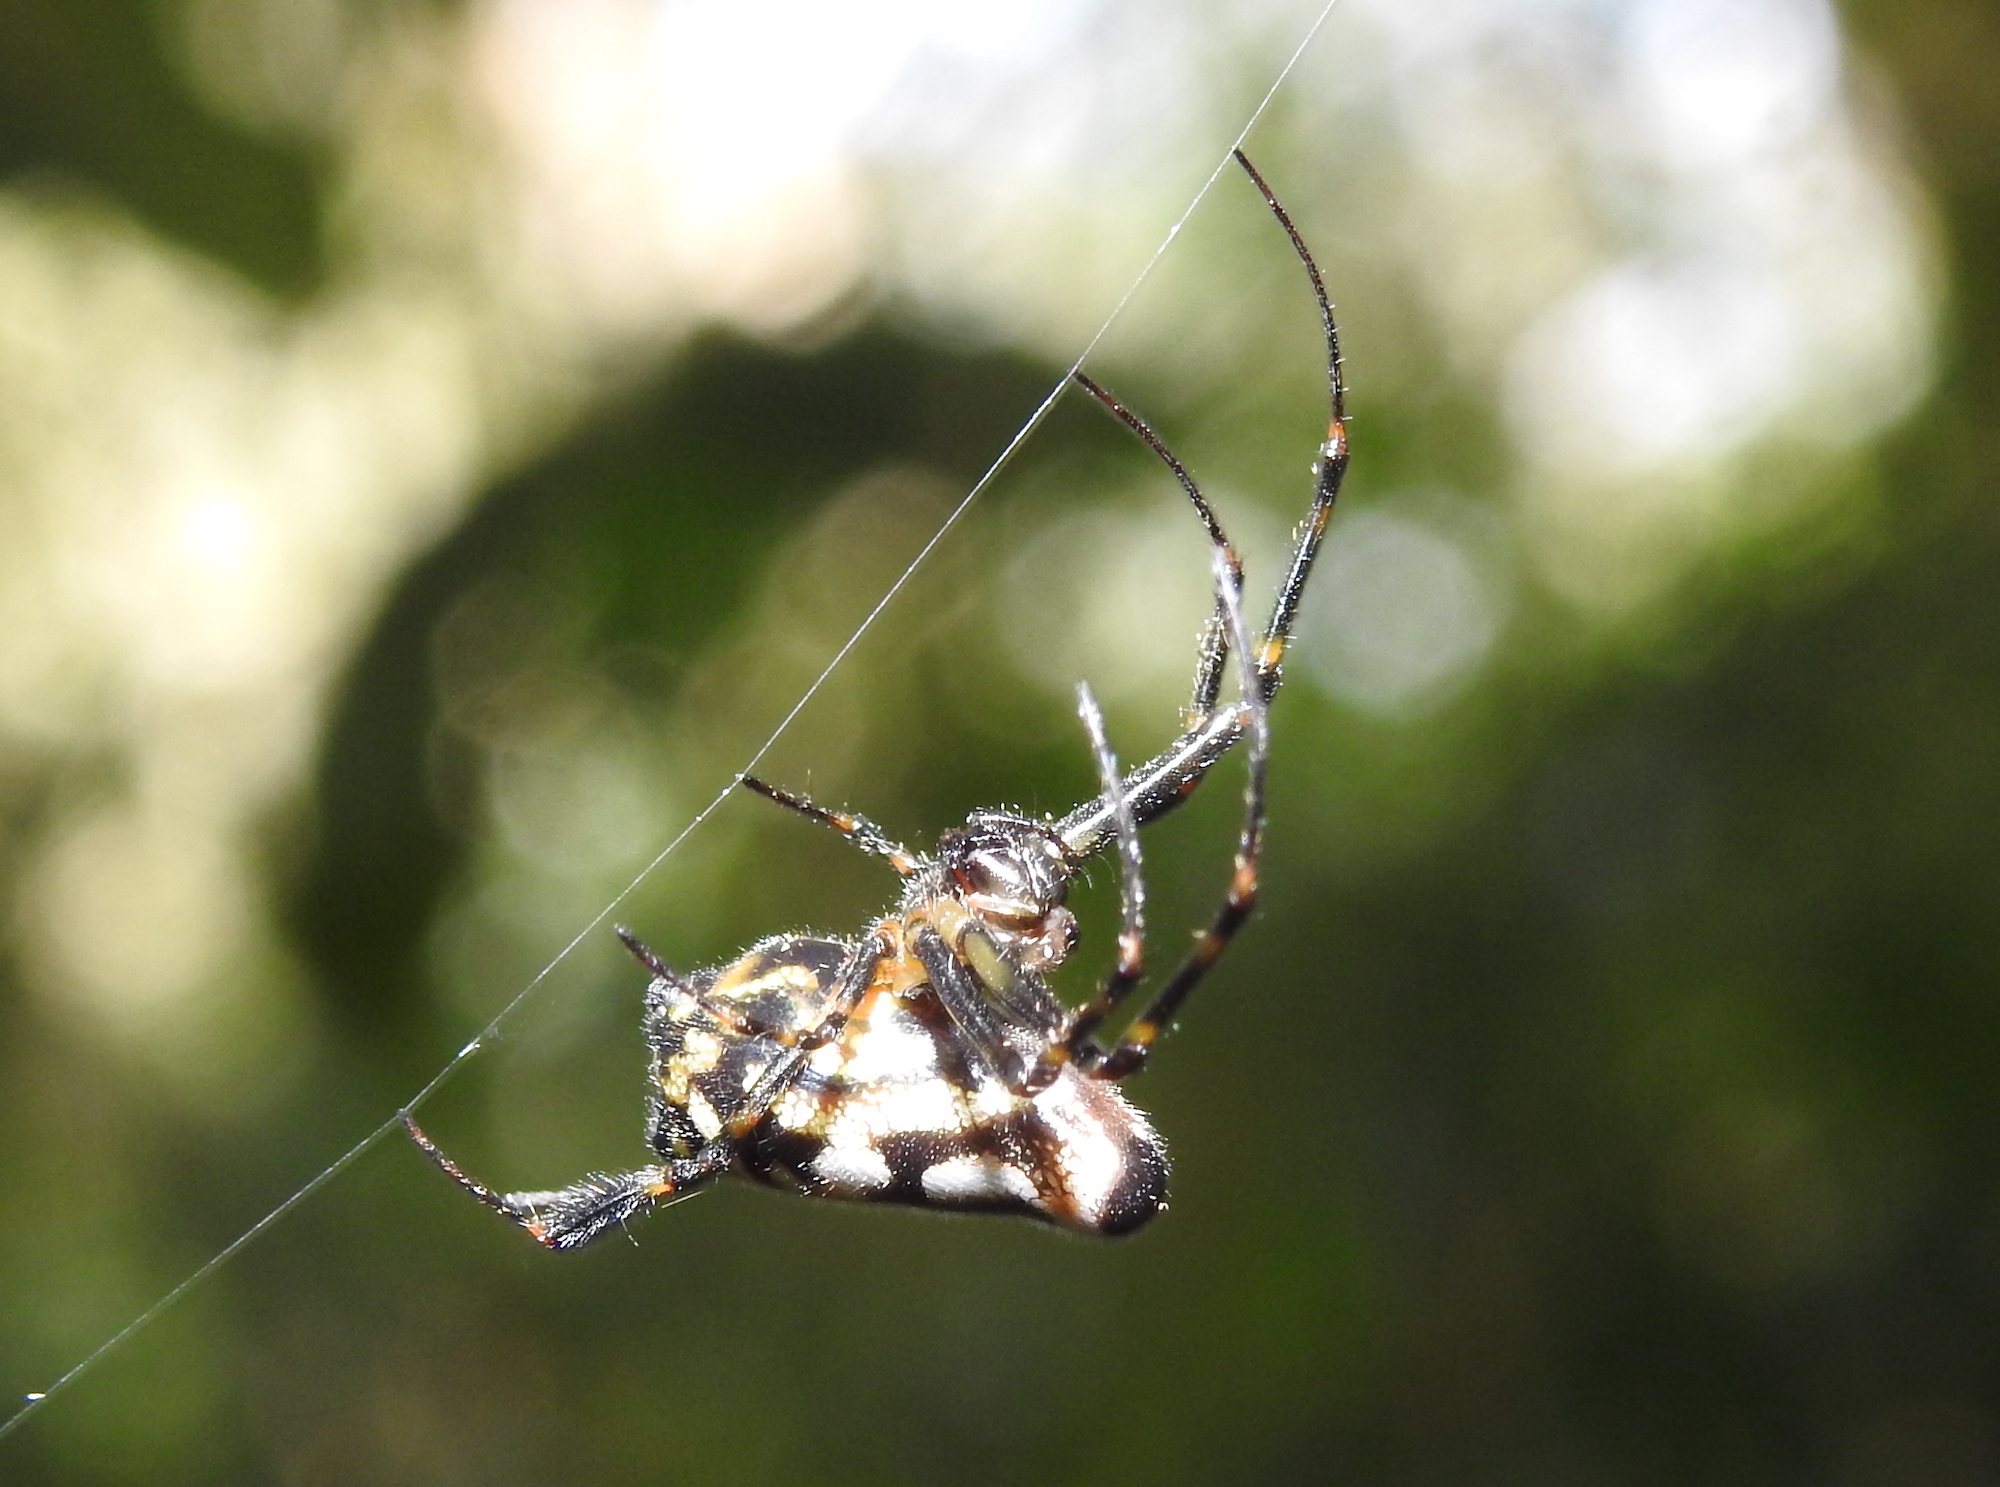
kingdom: Animalia
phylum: Arthropoda
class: Arachnida
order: Araneae
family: Tetragnathidae
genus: Leucauge
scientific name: Leucauge fastigata
